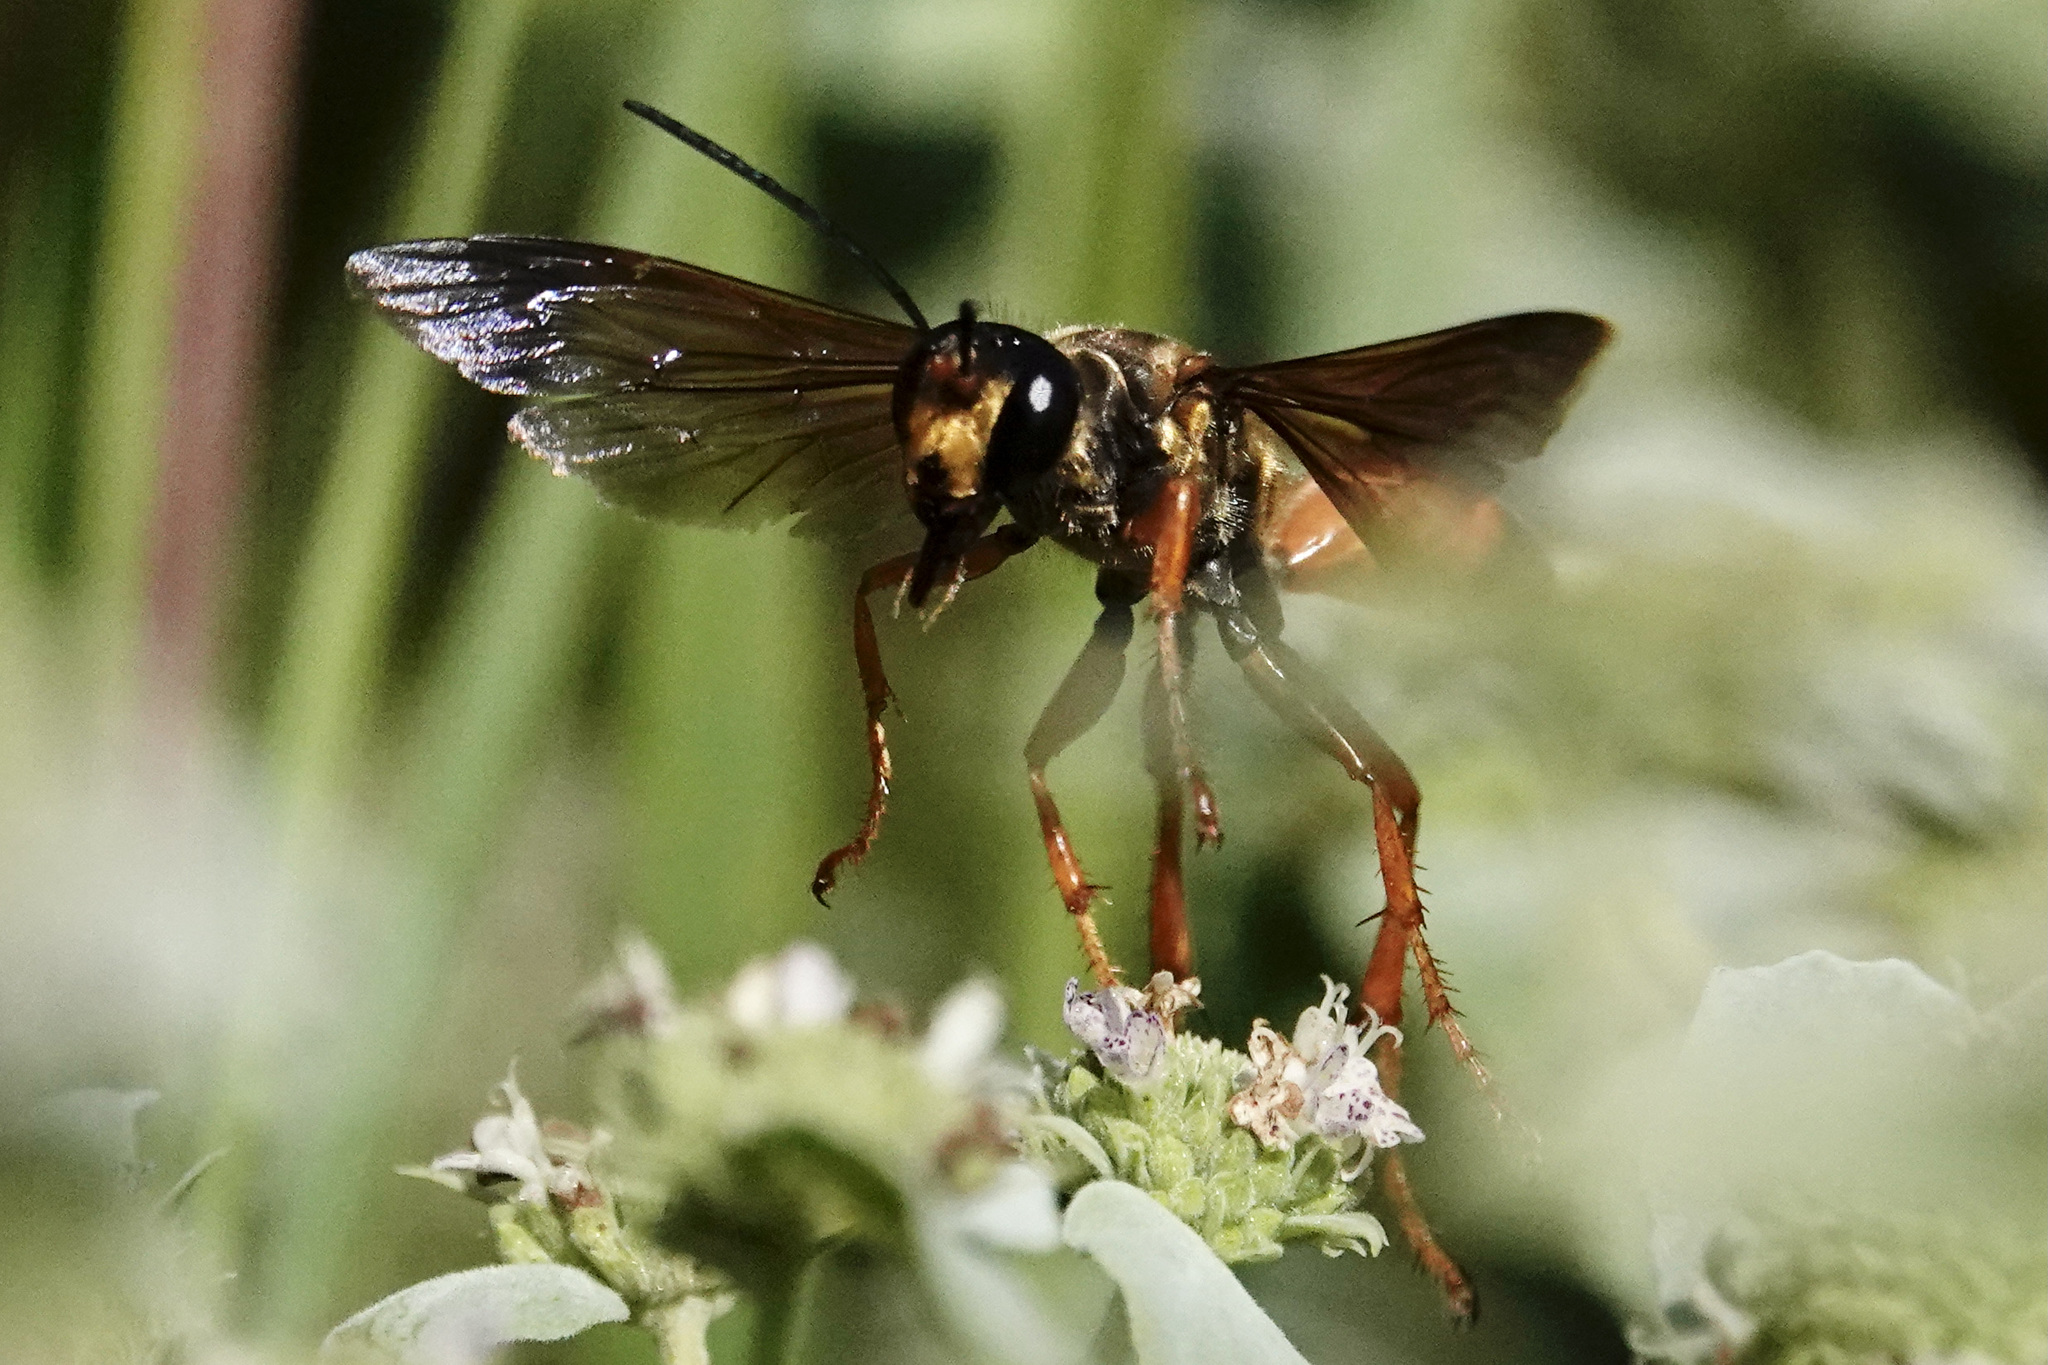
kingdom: Animalia
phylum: Arthropoda
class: Insecta
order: Hymenoptera
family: Sphecidae
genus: Sphex
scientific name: Sphex ichneumoneus
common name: Great golden digger wasp
